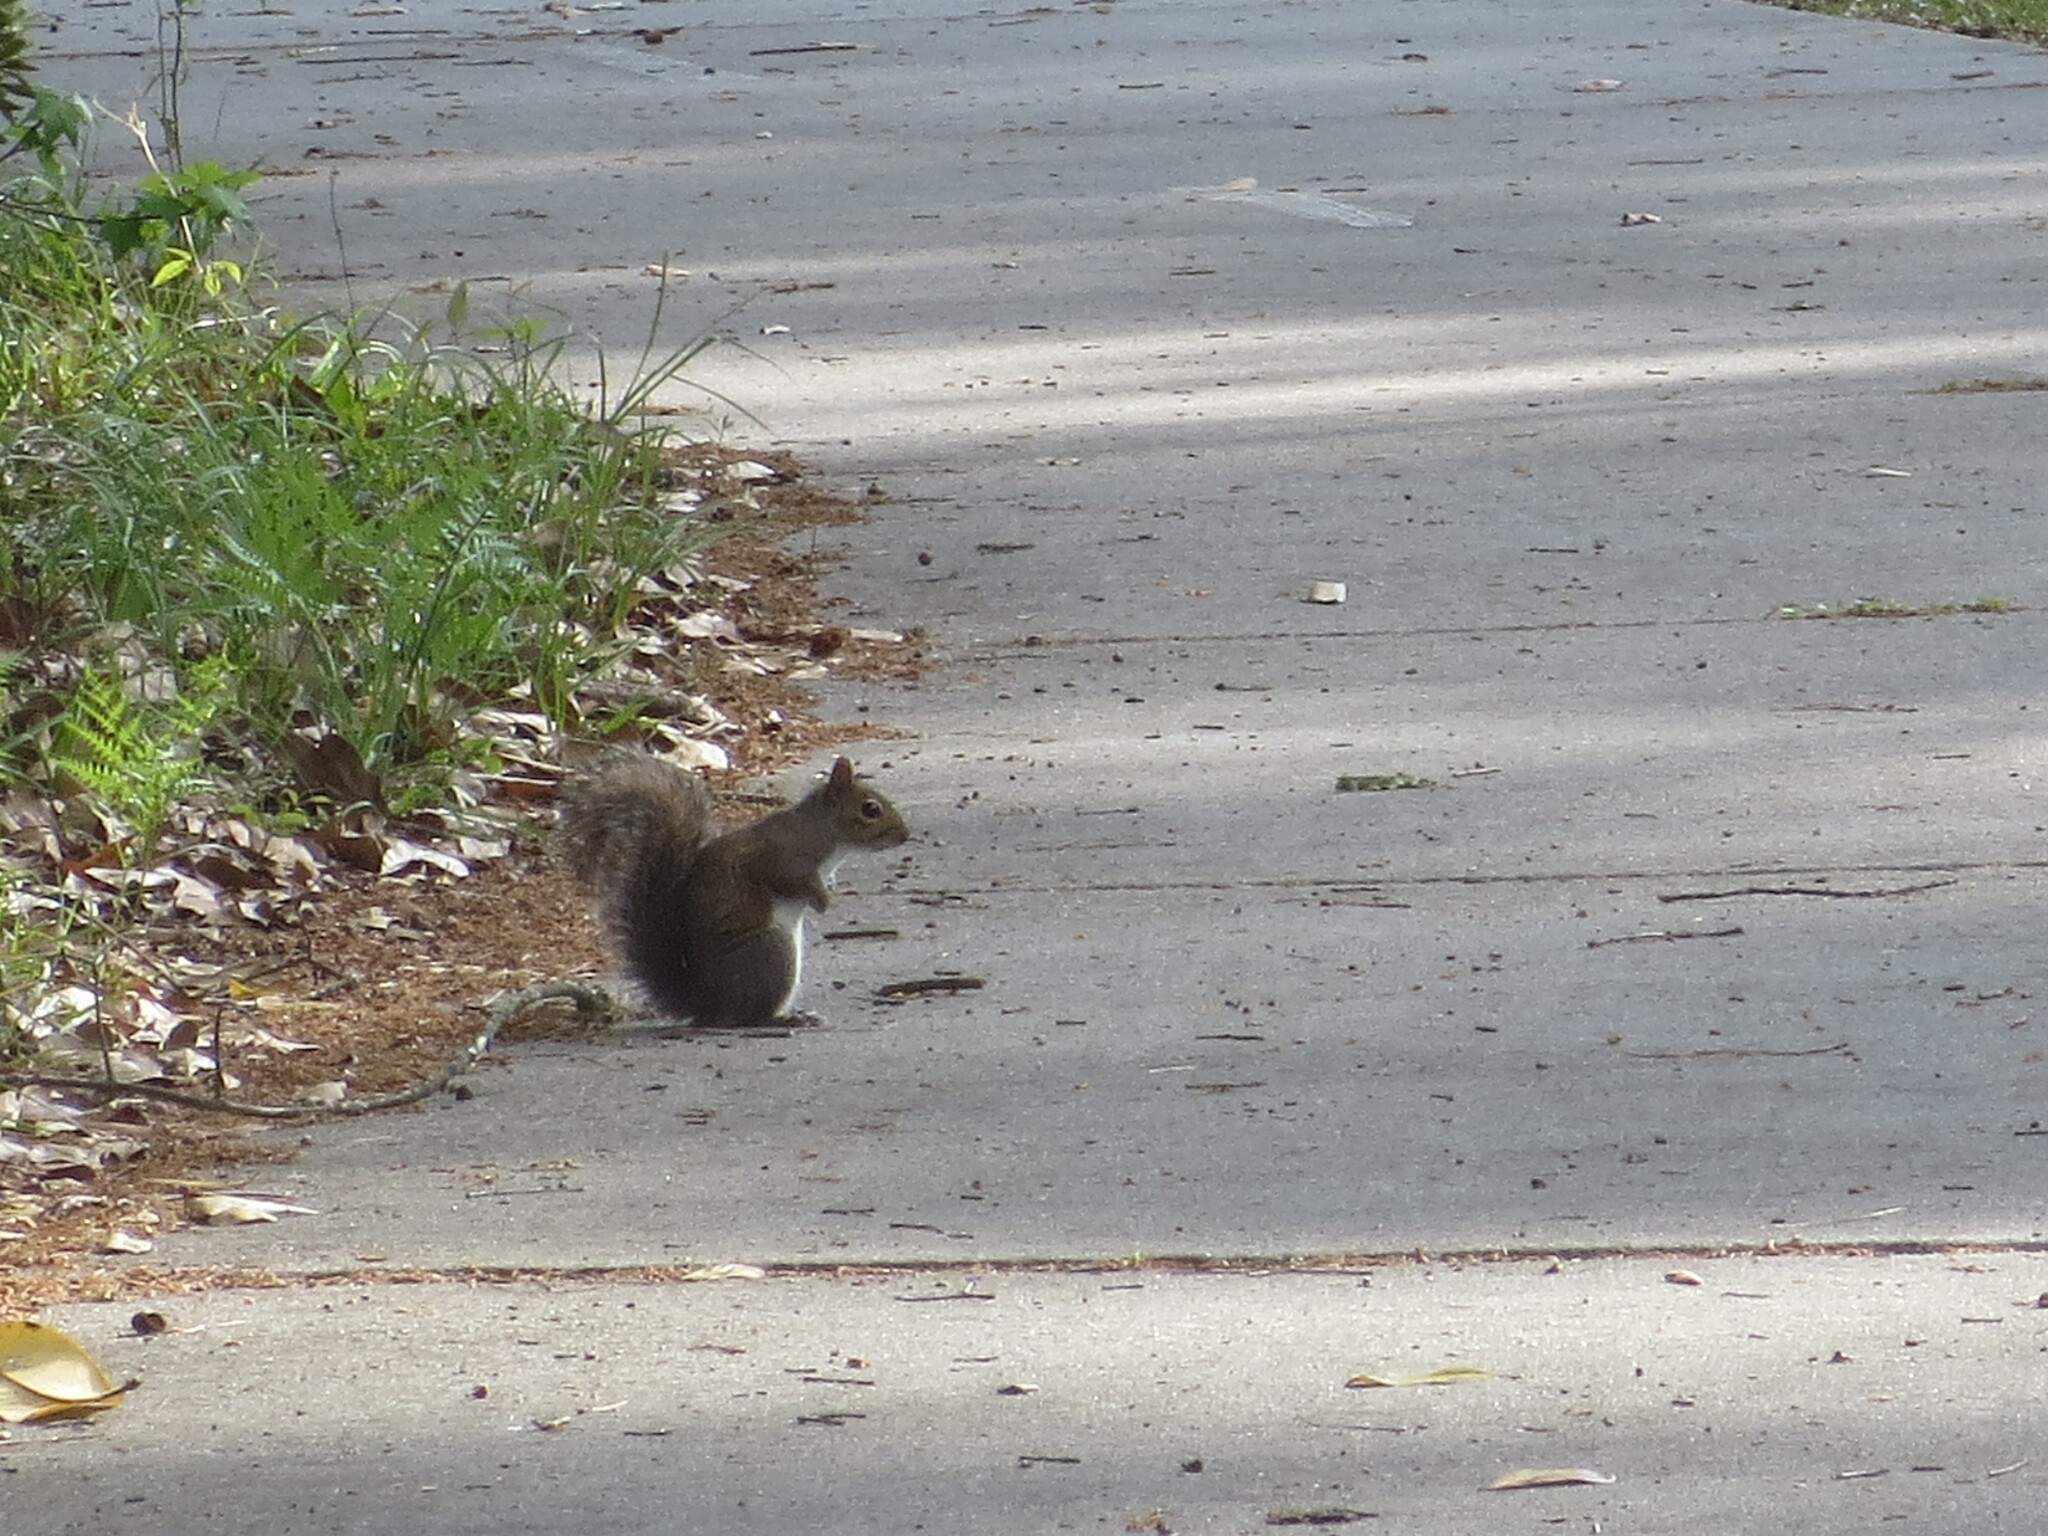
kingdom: Animalia
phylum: Chordata
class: Mammalia
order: Rodentia
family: Sciuridae
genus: Sciurus
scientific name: Sciurus carolinensis
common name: Eastern gray squirrel
